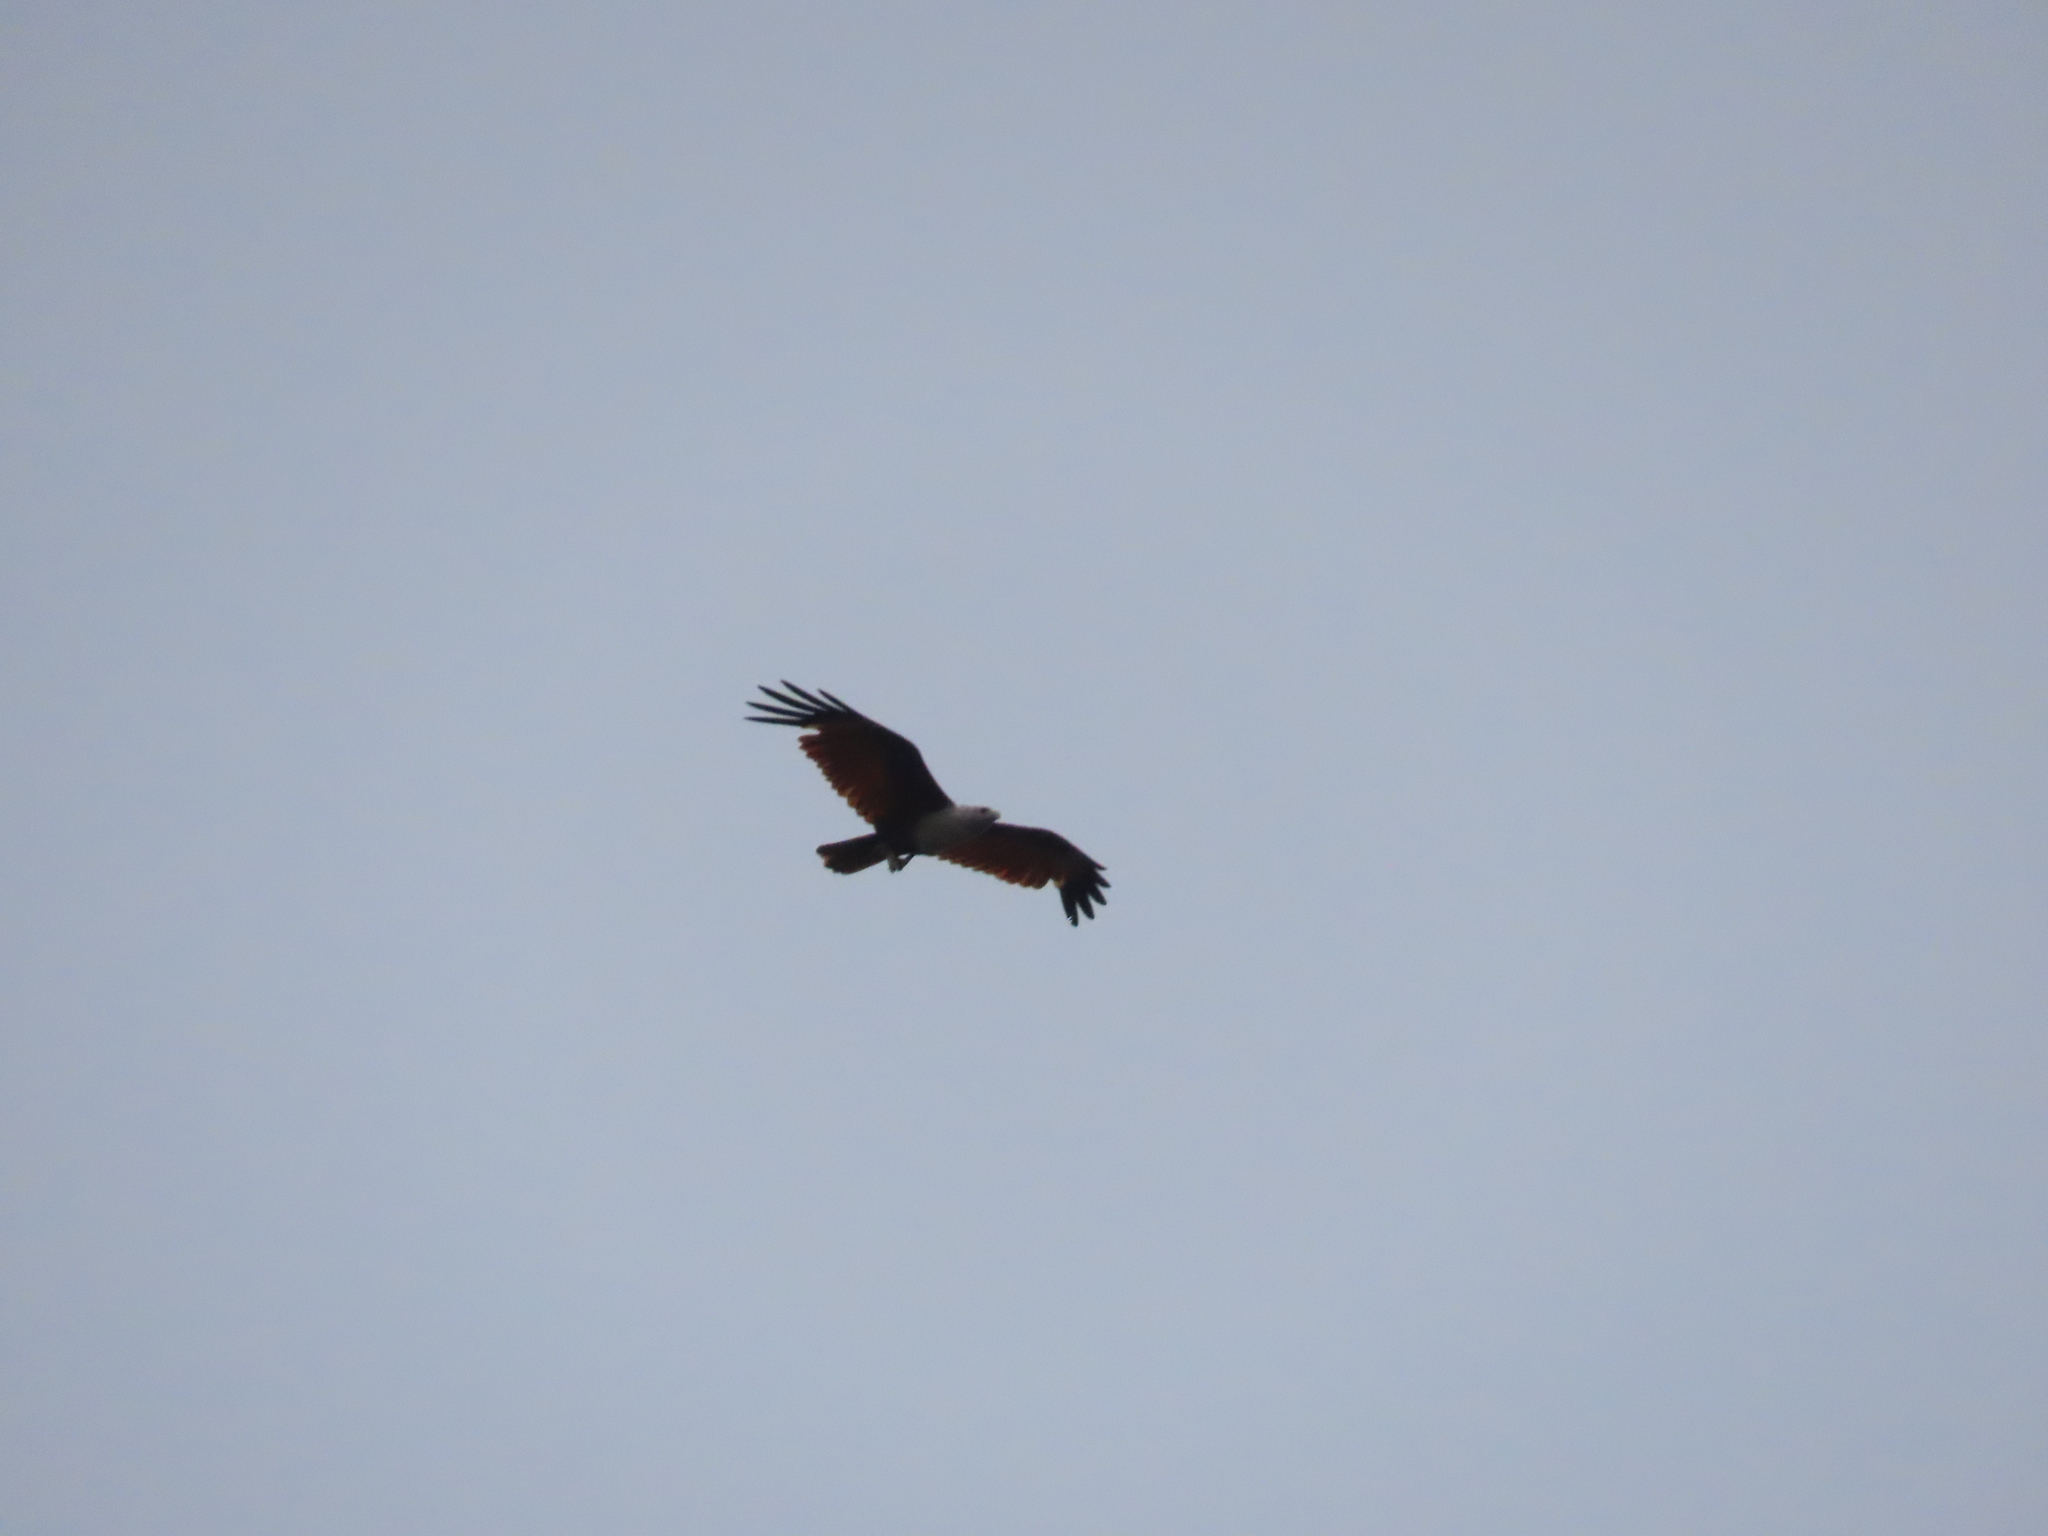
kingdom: Animalia
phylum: Chordata
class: Aves
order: Accipitriformes
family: Accipitridae
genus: Haliastur
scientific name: Haliastur indus
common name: Brahminy kite
